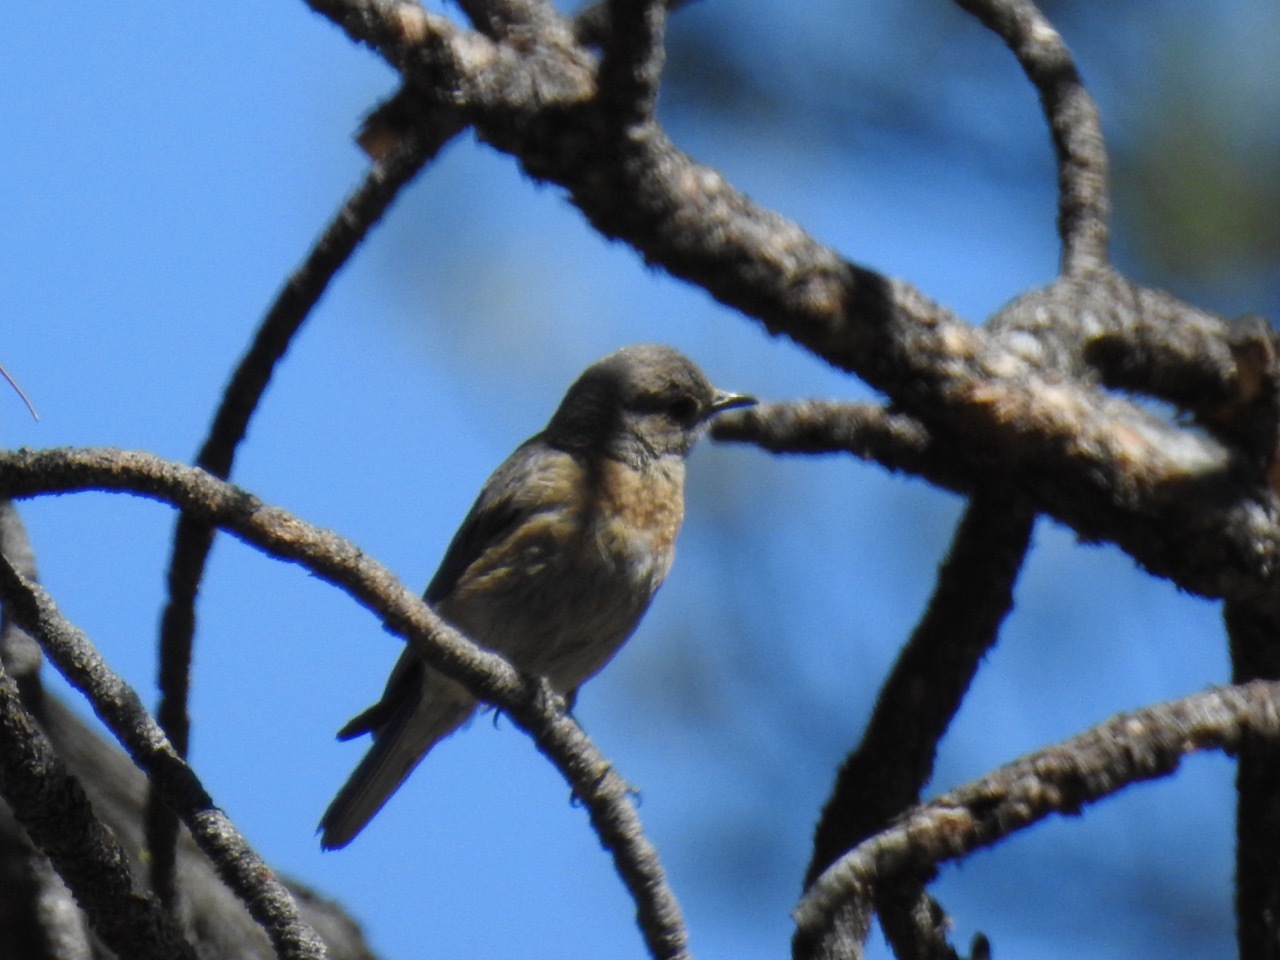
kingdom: Animalia
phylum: Chordata
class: Aves
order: Passeriformes
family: Turdidae
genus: Sialia
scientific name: Sialia mexicana
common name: Western bluebird
